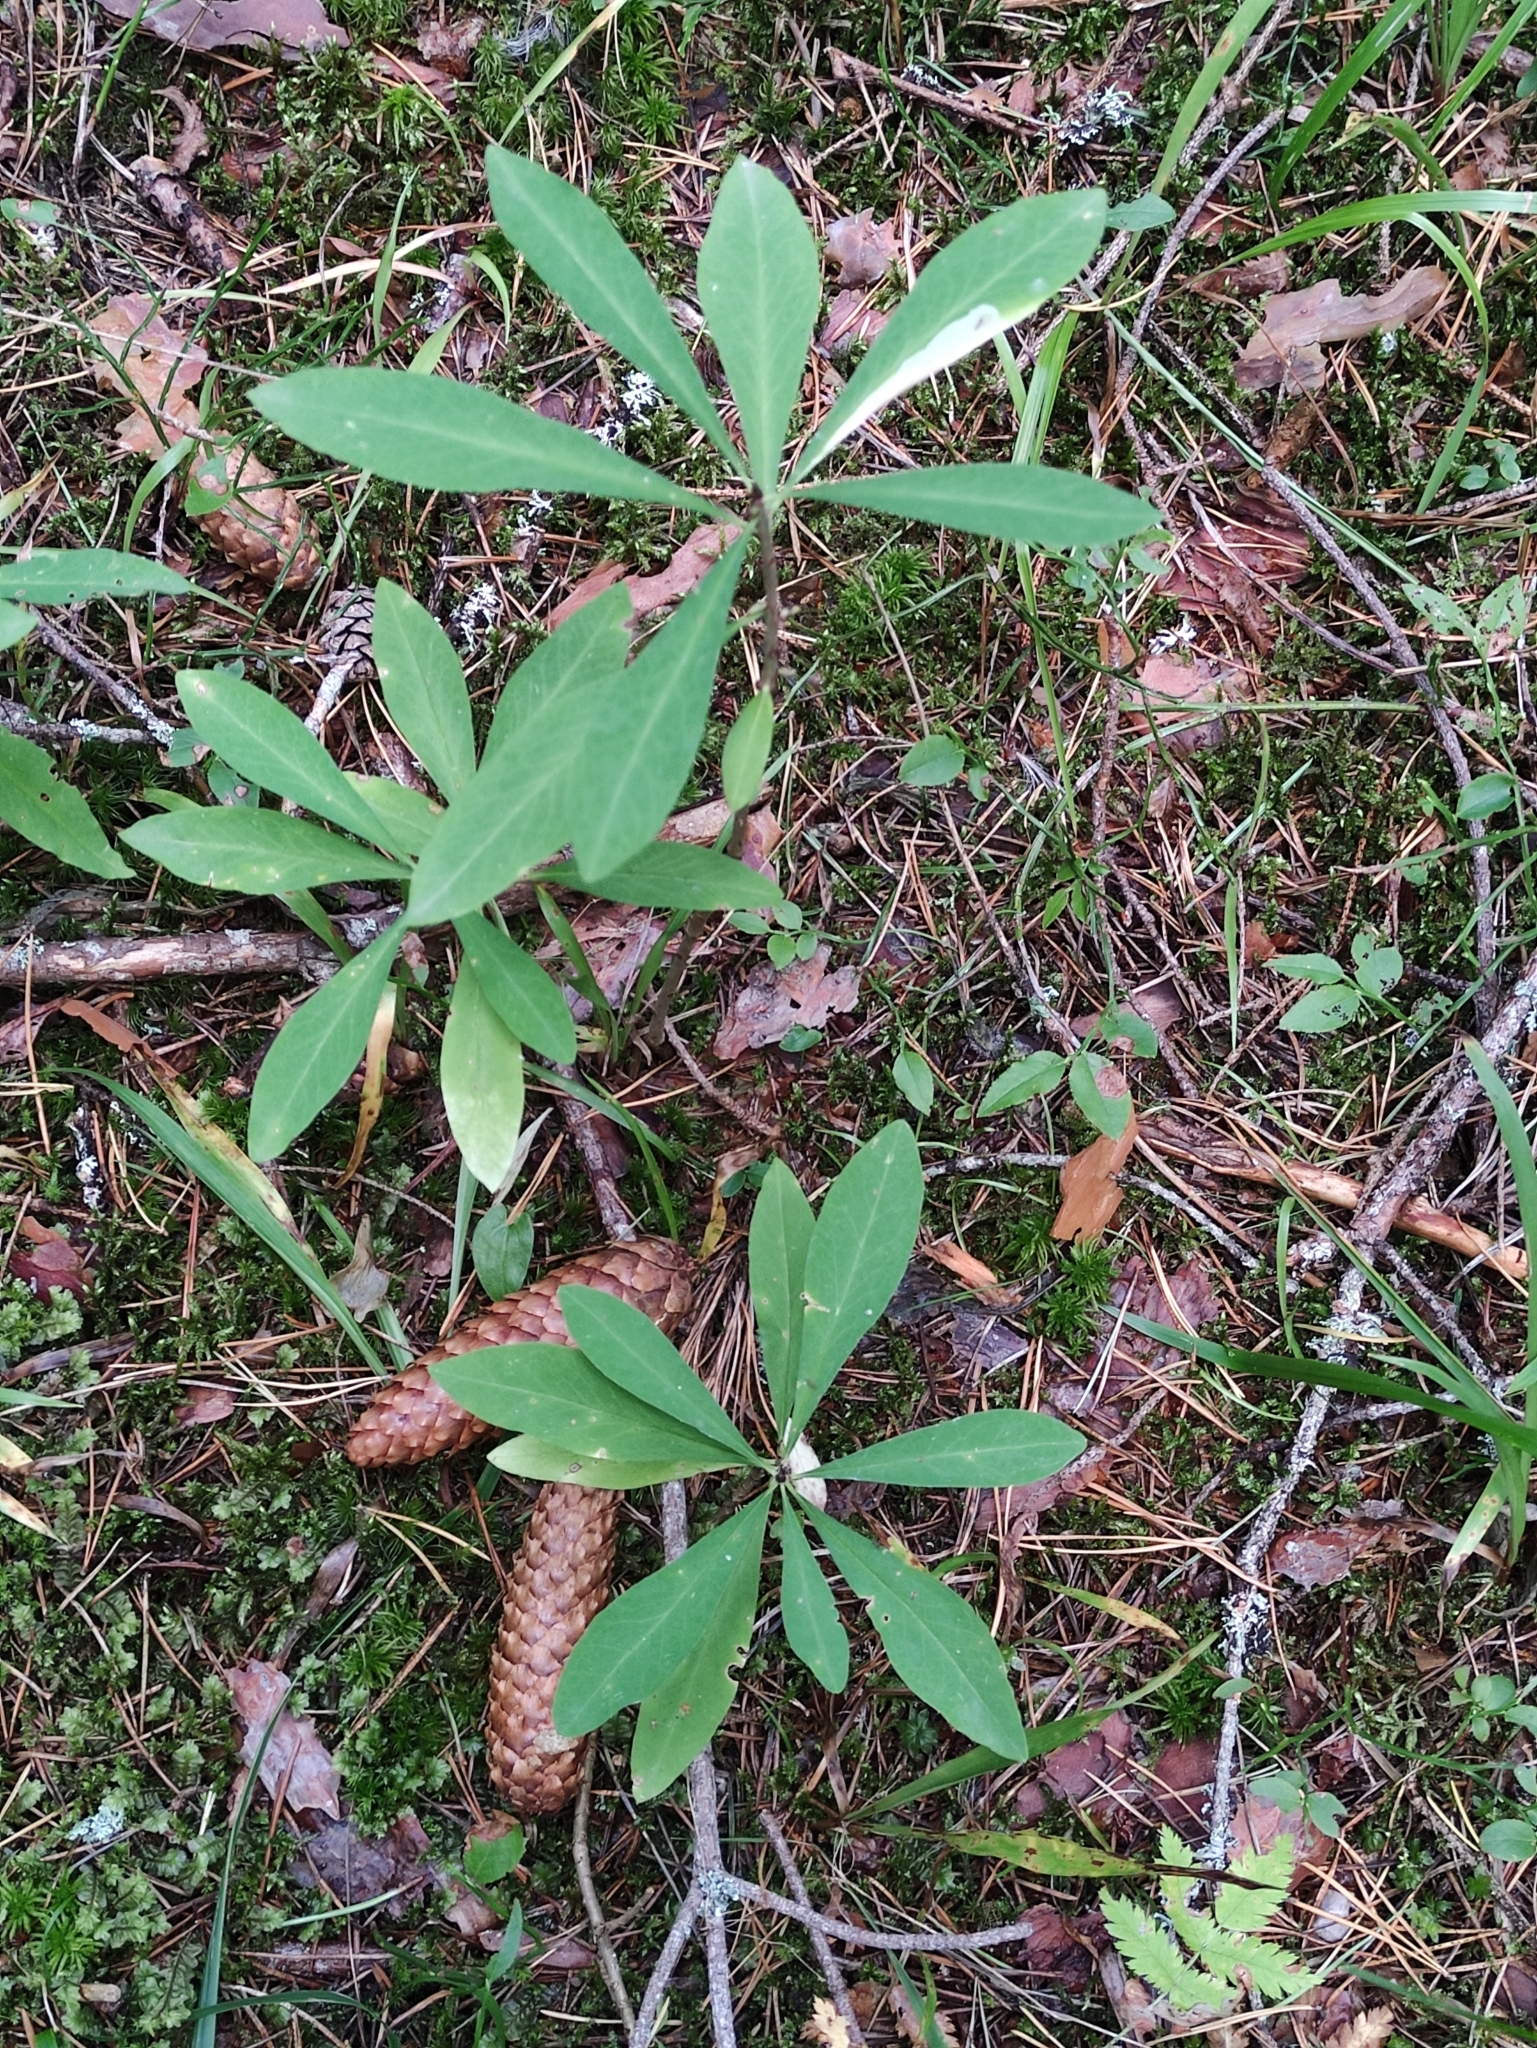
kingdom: Plantae
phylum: Tracheophyta
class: Magnoliopsida
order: Malvales
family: Thymelaeaceae
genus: Daphne
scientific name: Daphne mezereum
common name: Mezereon
